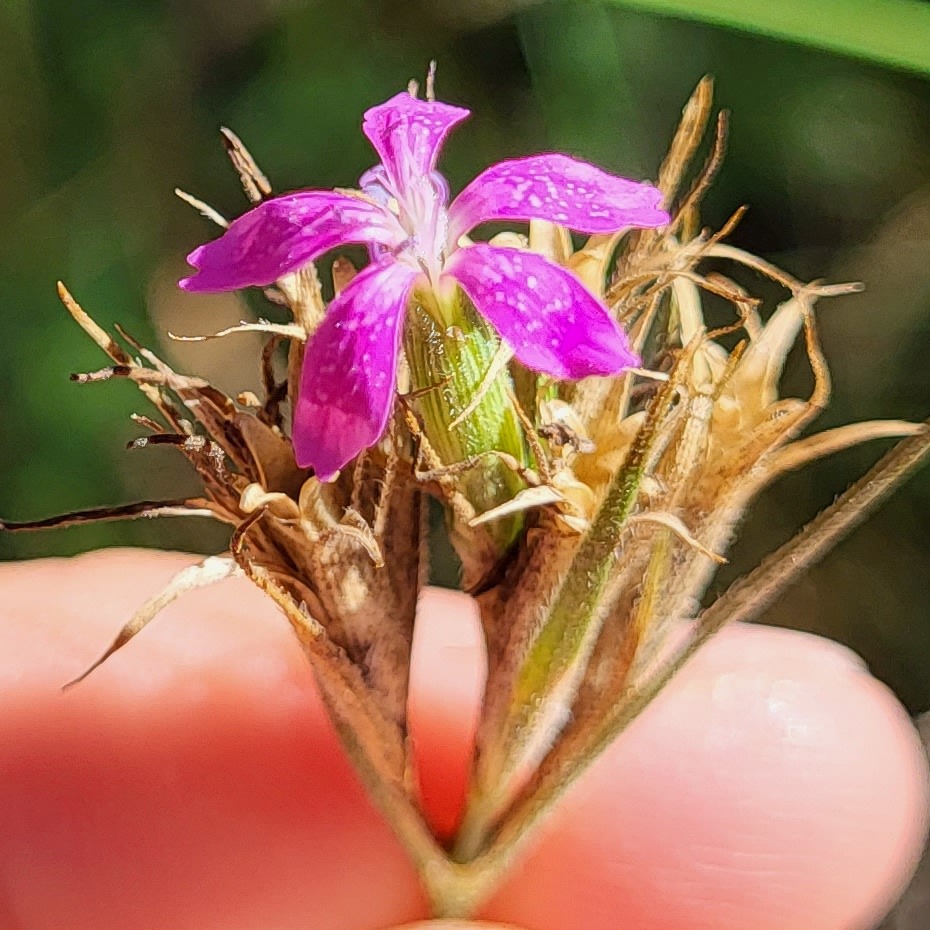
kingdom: Plantae
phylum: Tracheophyta
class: Magnoliopsida
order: Caryophyllales
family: Caryophyllaceae
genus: Dianthus
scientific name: Dianthus armeria
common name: Deptford pink
